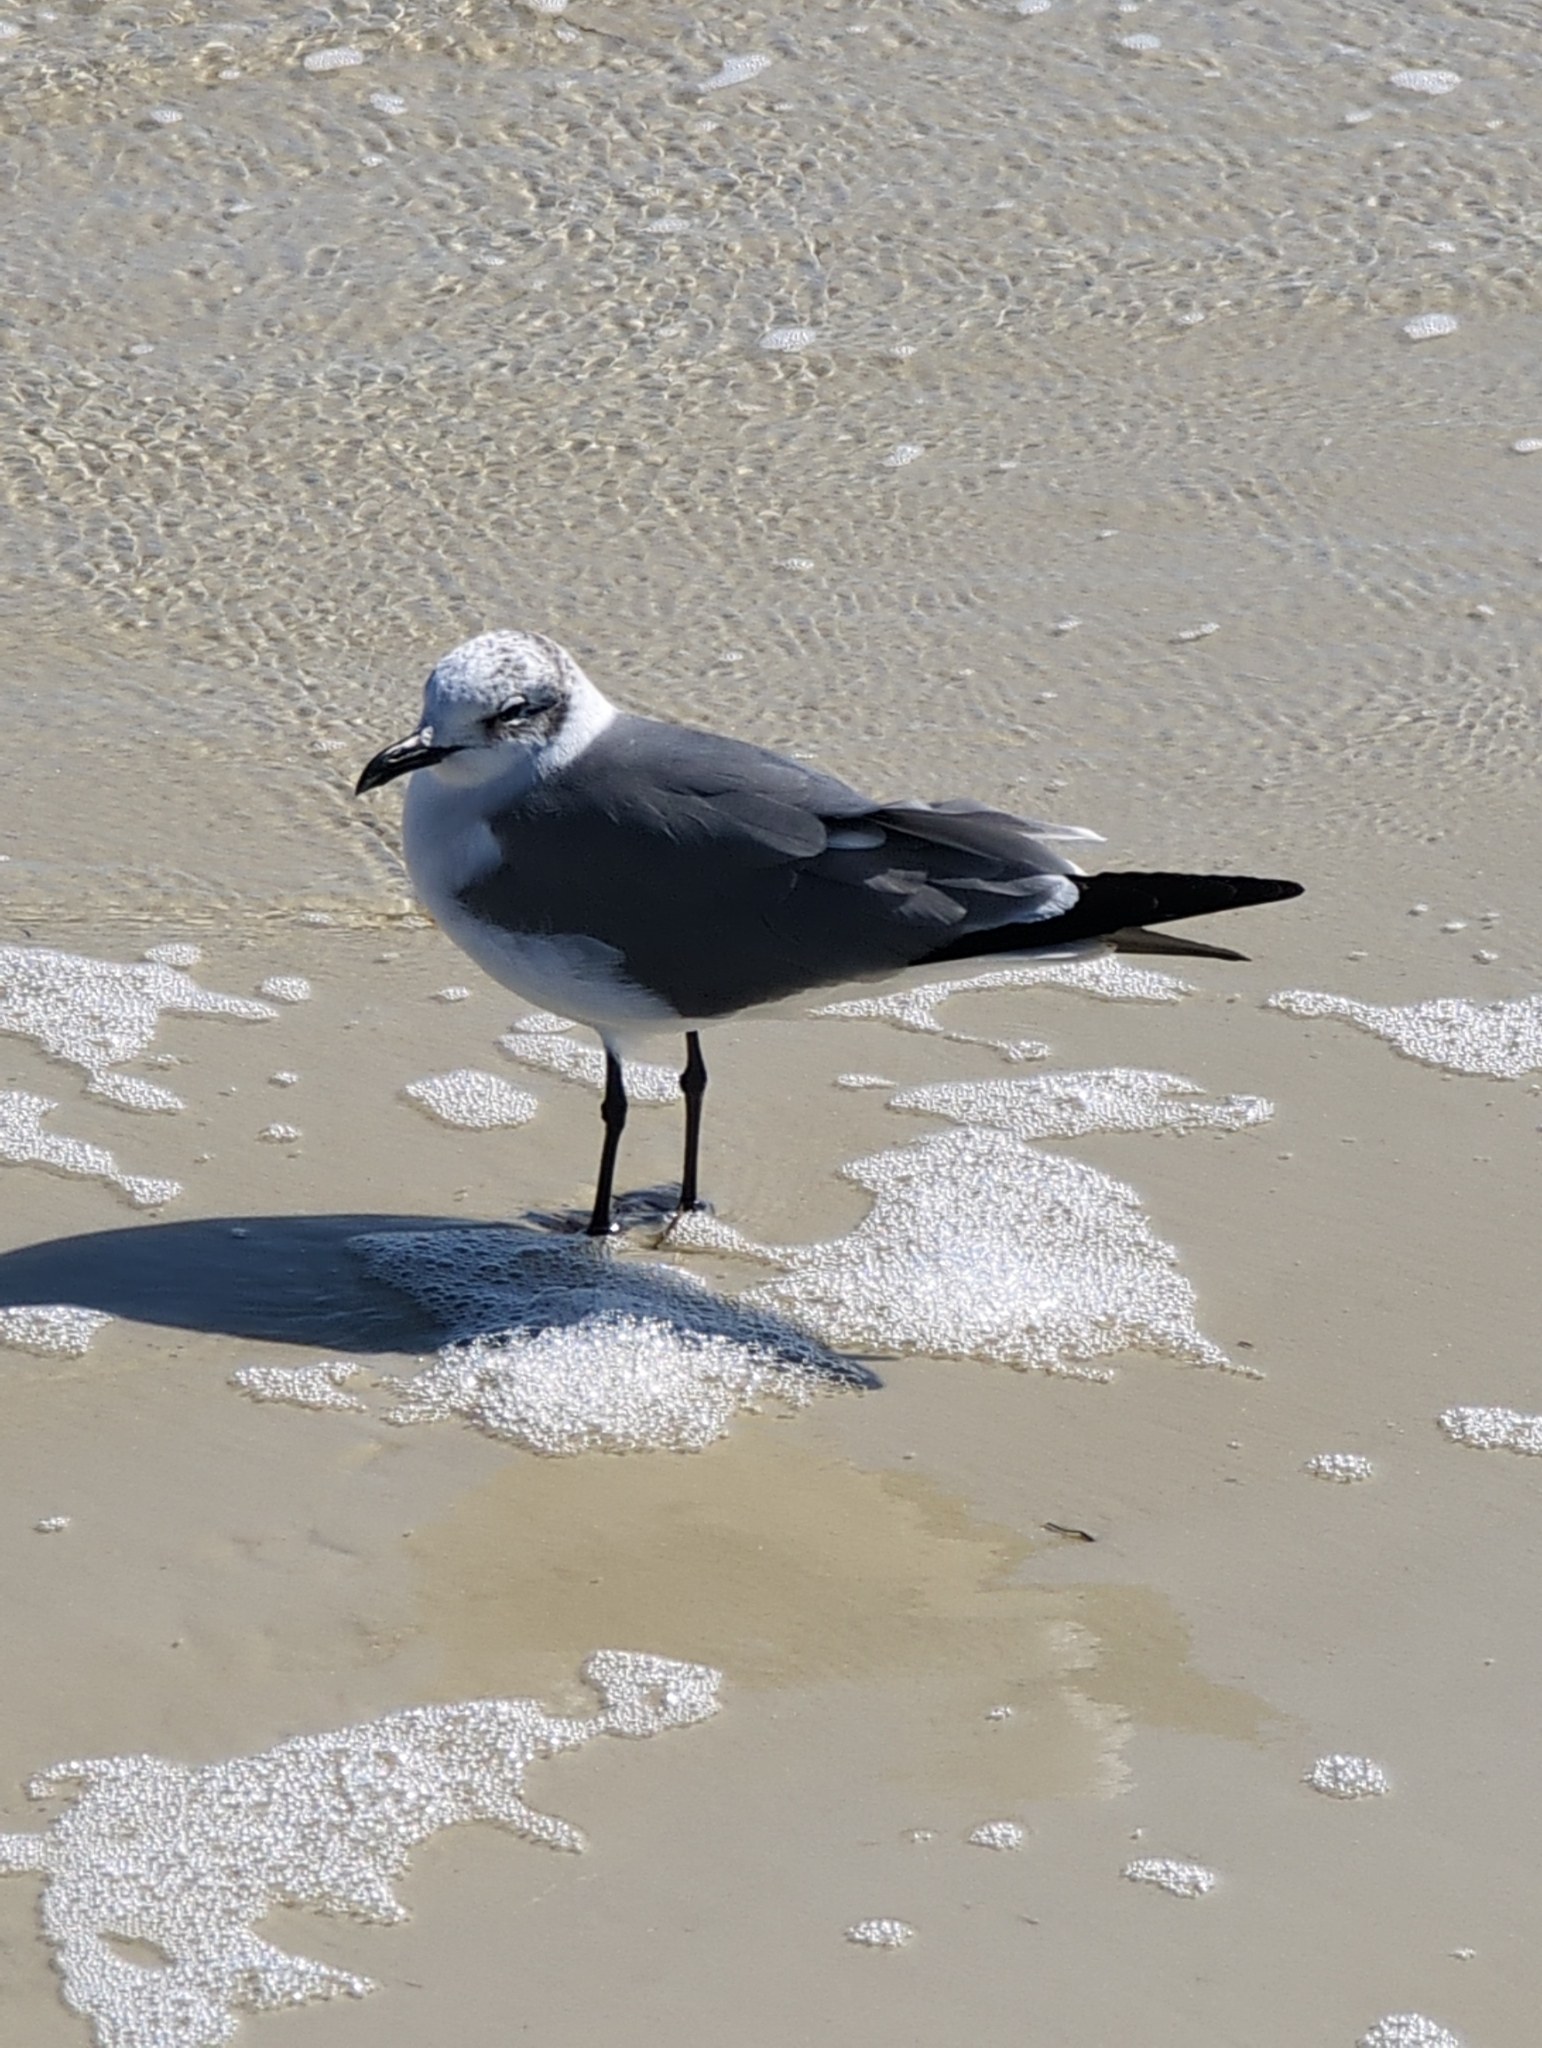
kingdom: Animalia
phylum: Chordata
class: Aves
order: Charadriiformes
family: Laridae
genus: Leucophaeus
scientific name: Leucophaeus atricilla
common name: Laughing gull
